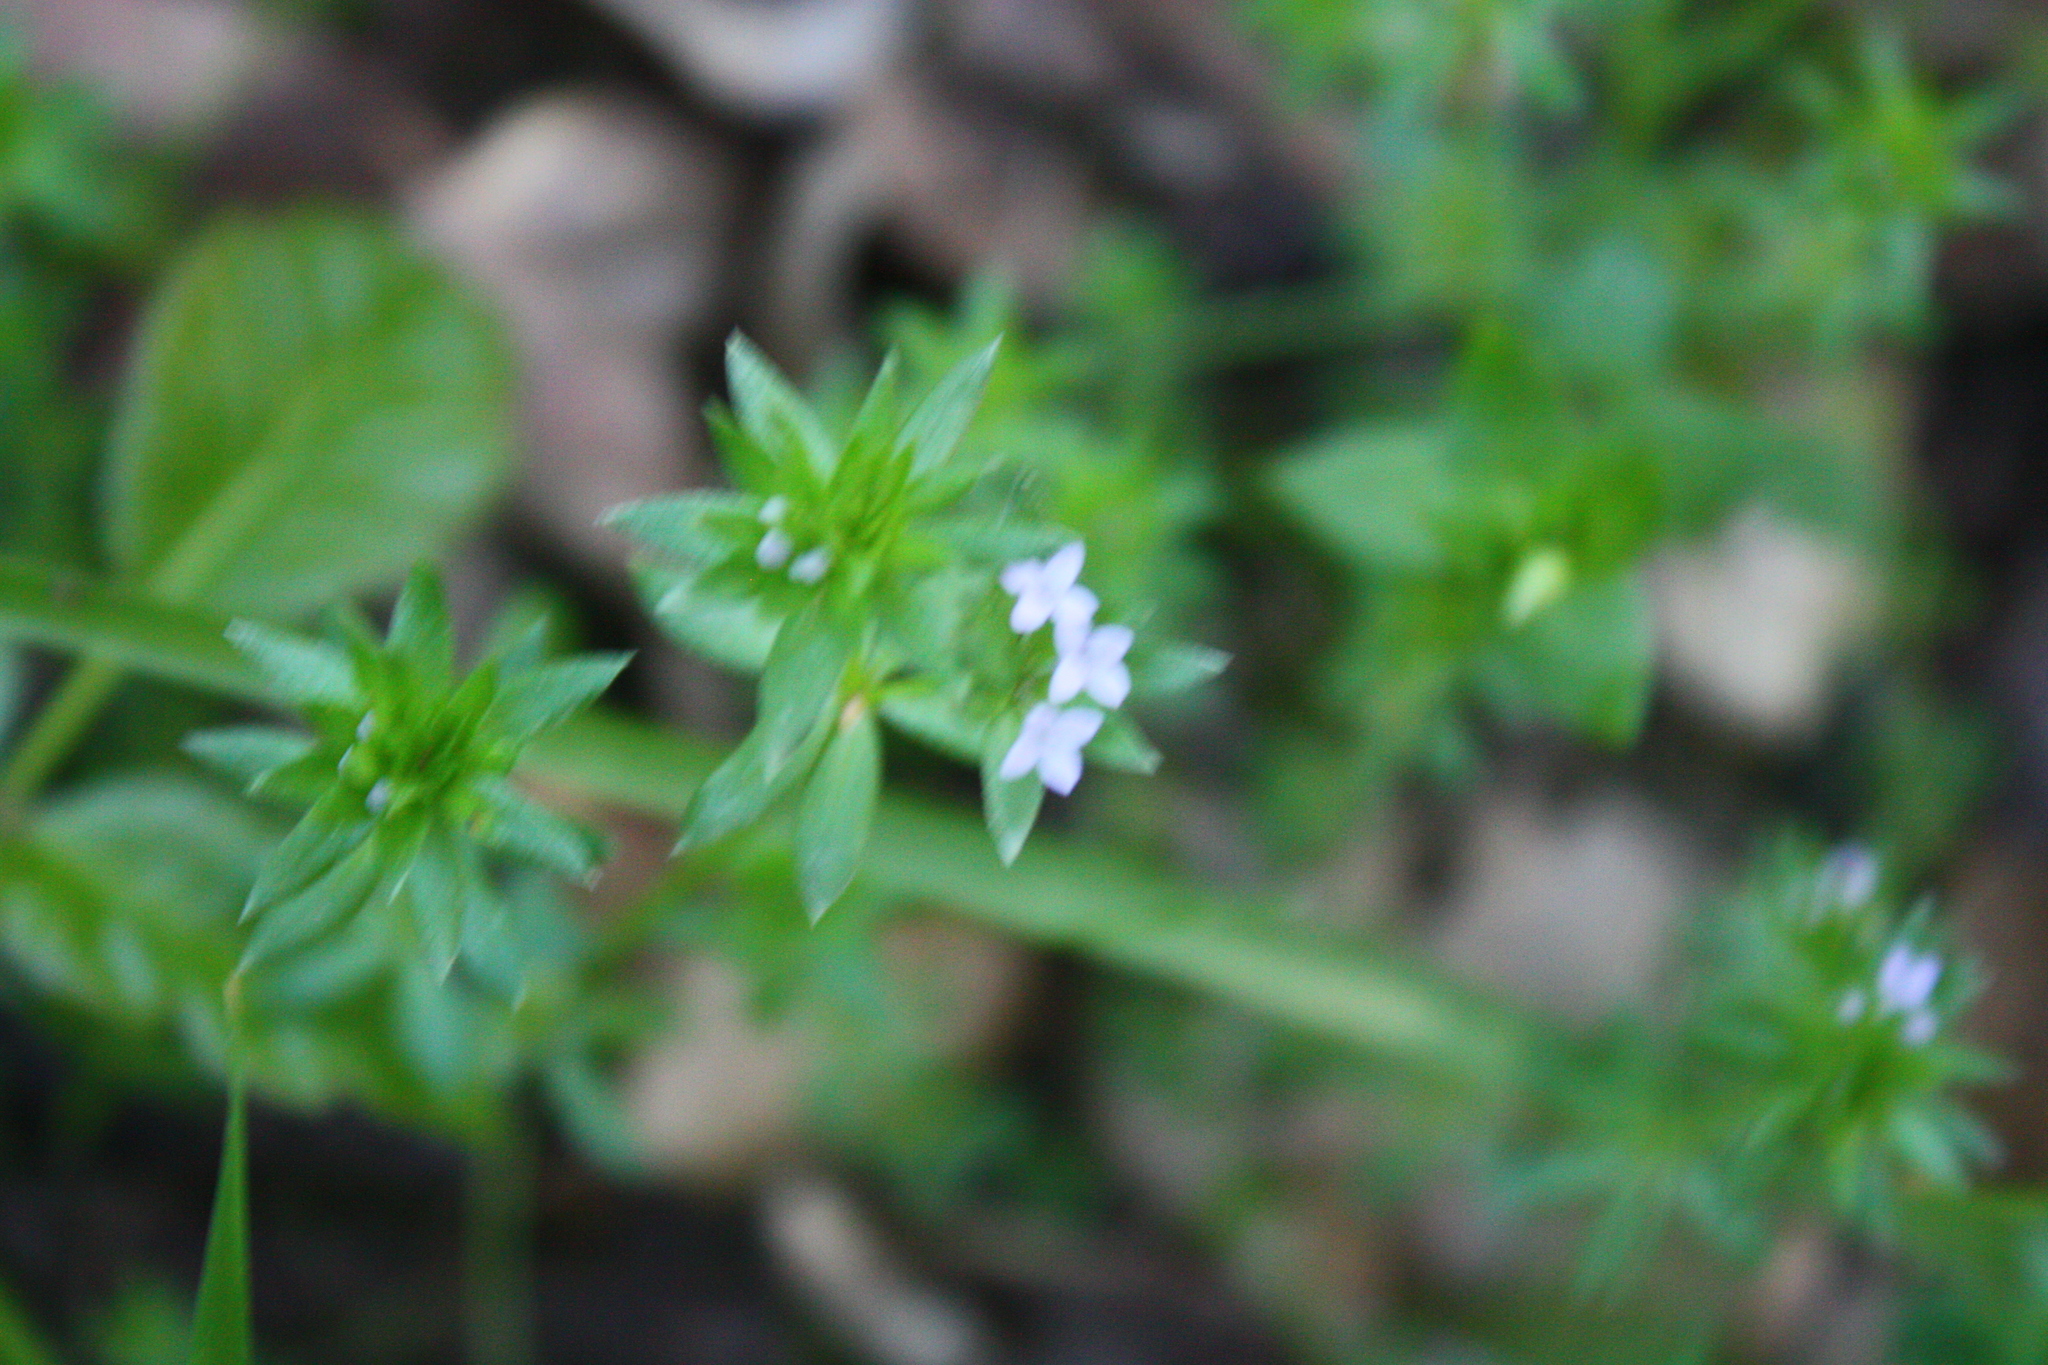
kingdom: Plantae
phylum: Tracheophyta
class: Magnoliopsida
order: Gentianales
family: Rubiaceae
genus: Sherardia
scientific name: Sherardia arvensis
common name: Field madder
